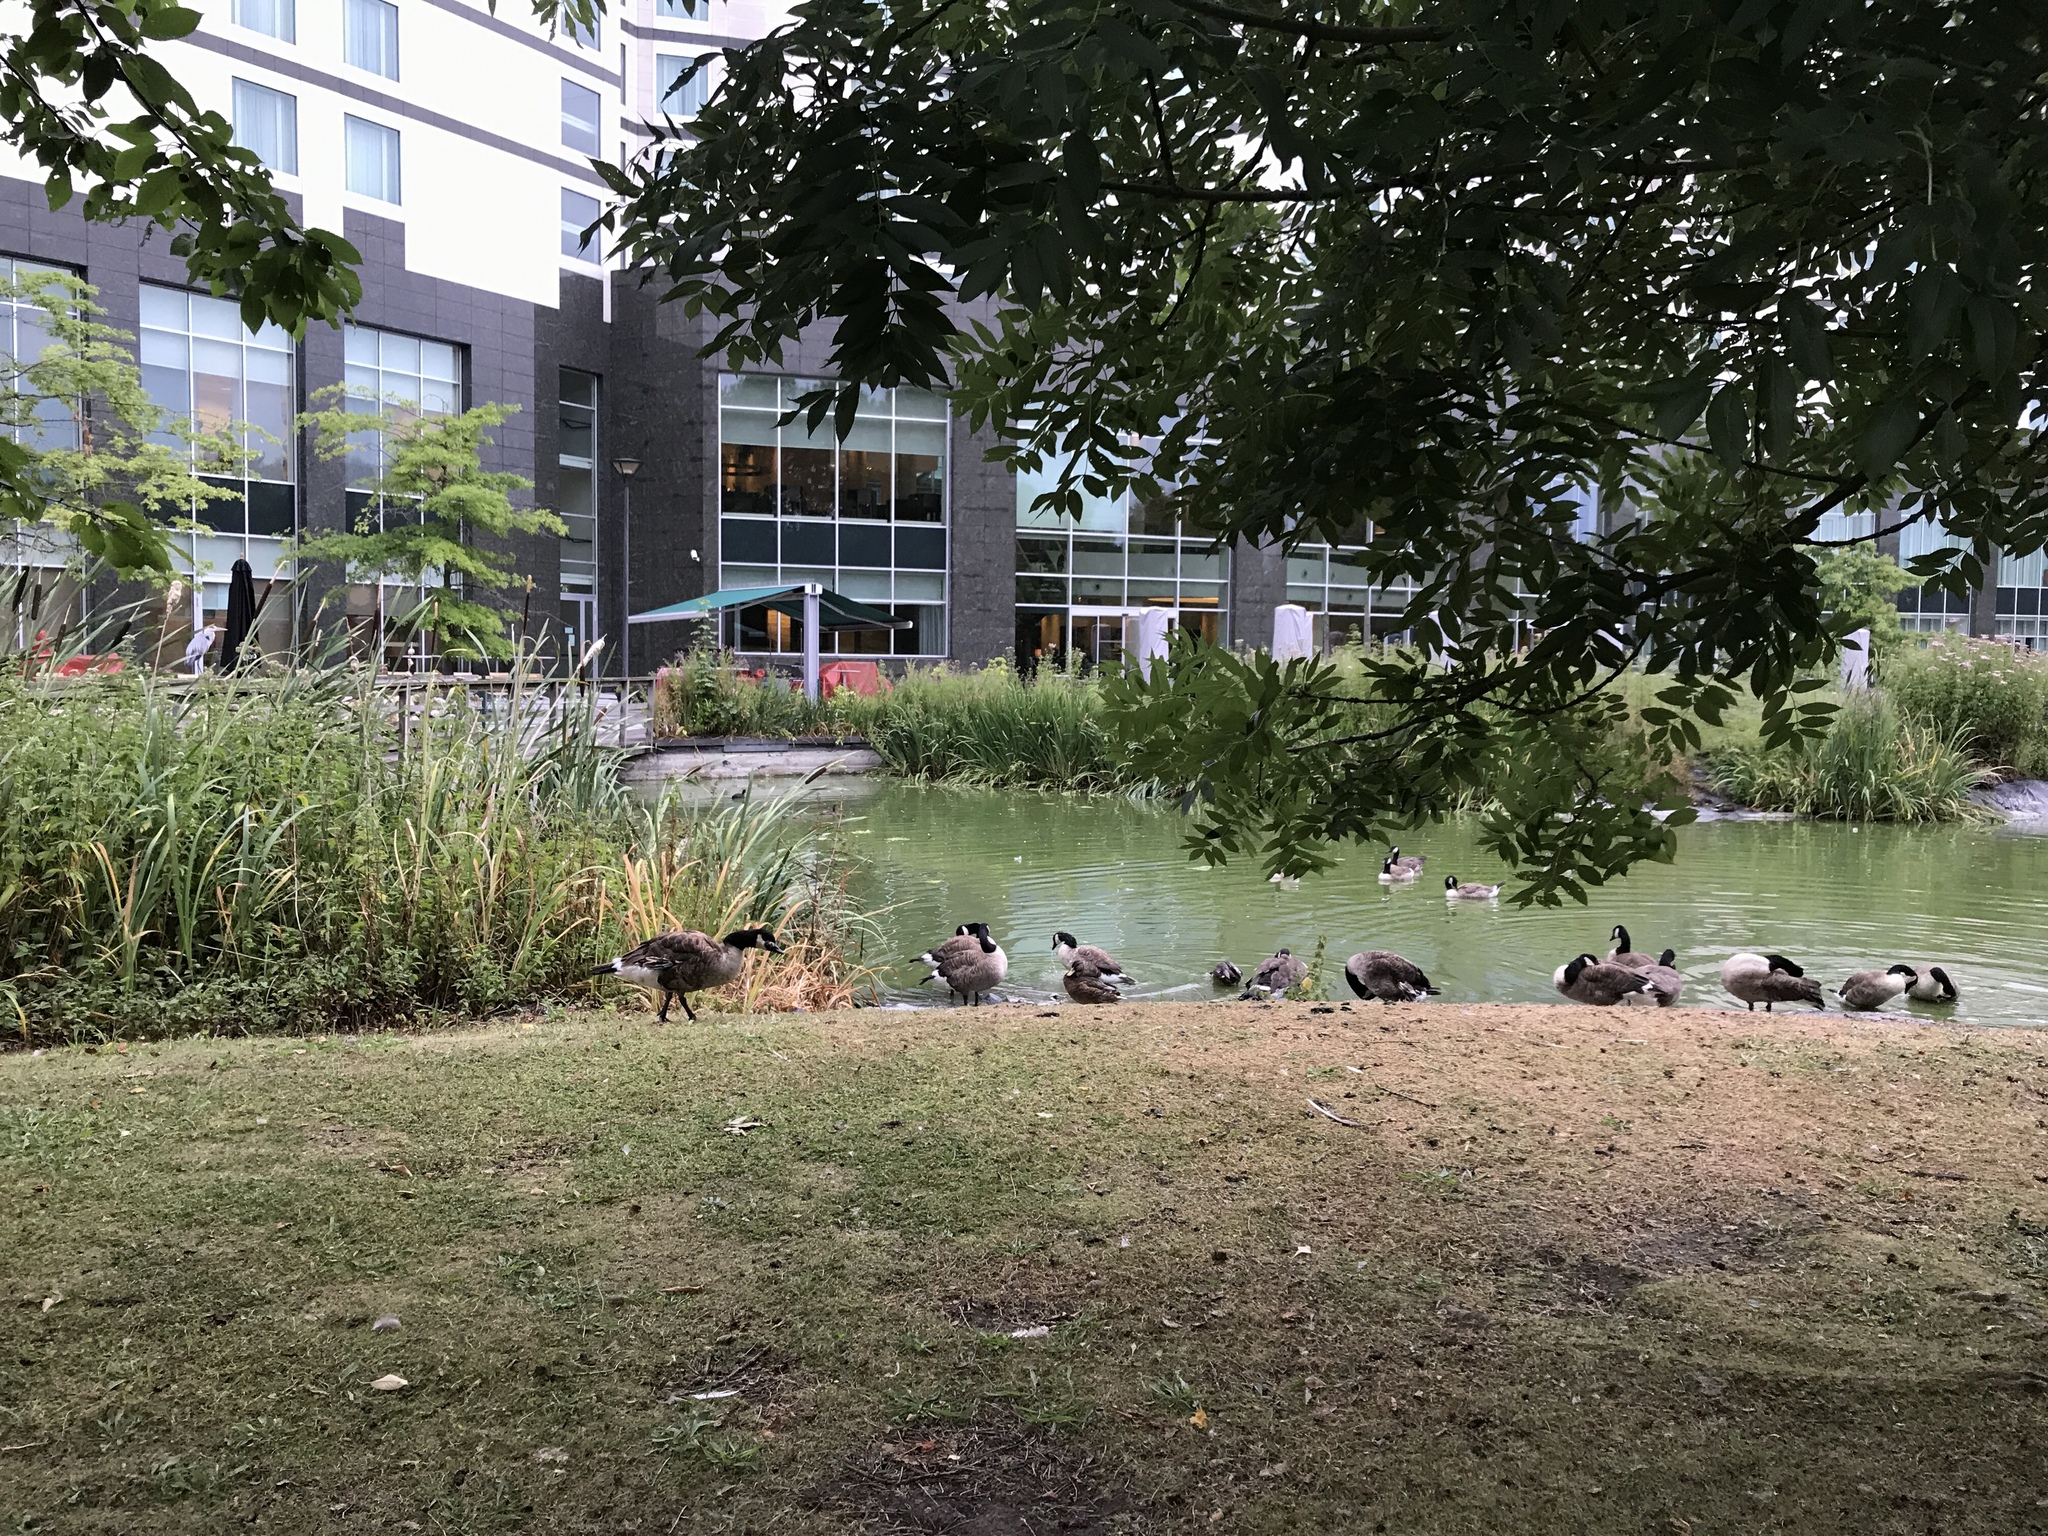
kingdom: Animalia
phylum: Chordata
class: Aves
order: Anseriformes
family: Anatidae
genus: Branta
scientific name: Branta canadensis
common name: Canada goose
